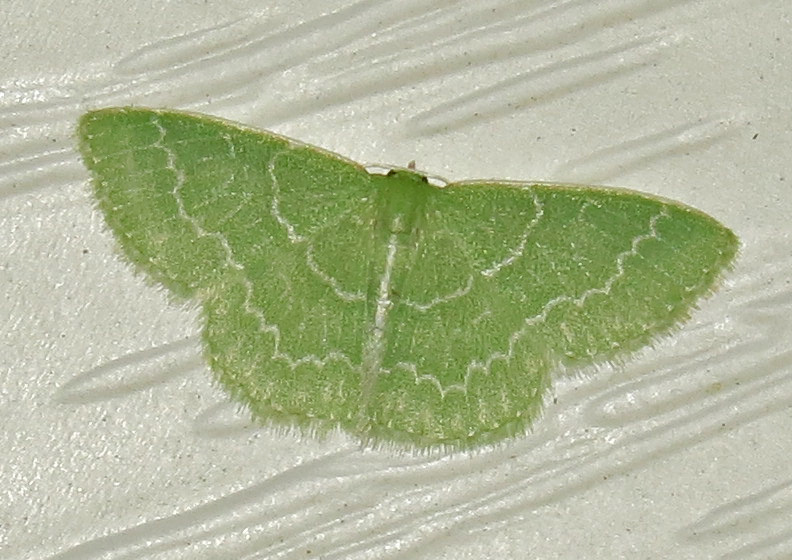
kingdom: Animalia
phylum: Arthropoda
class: Insecta
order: Lepidoptera
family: Geometridae
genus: Synchlora
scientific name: Synchlora frondaria
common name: Southern emerald
